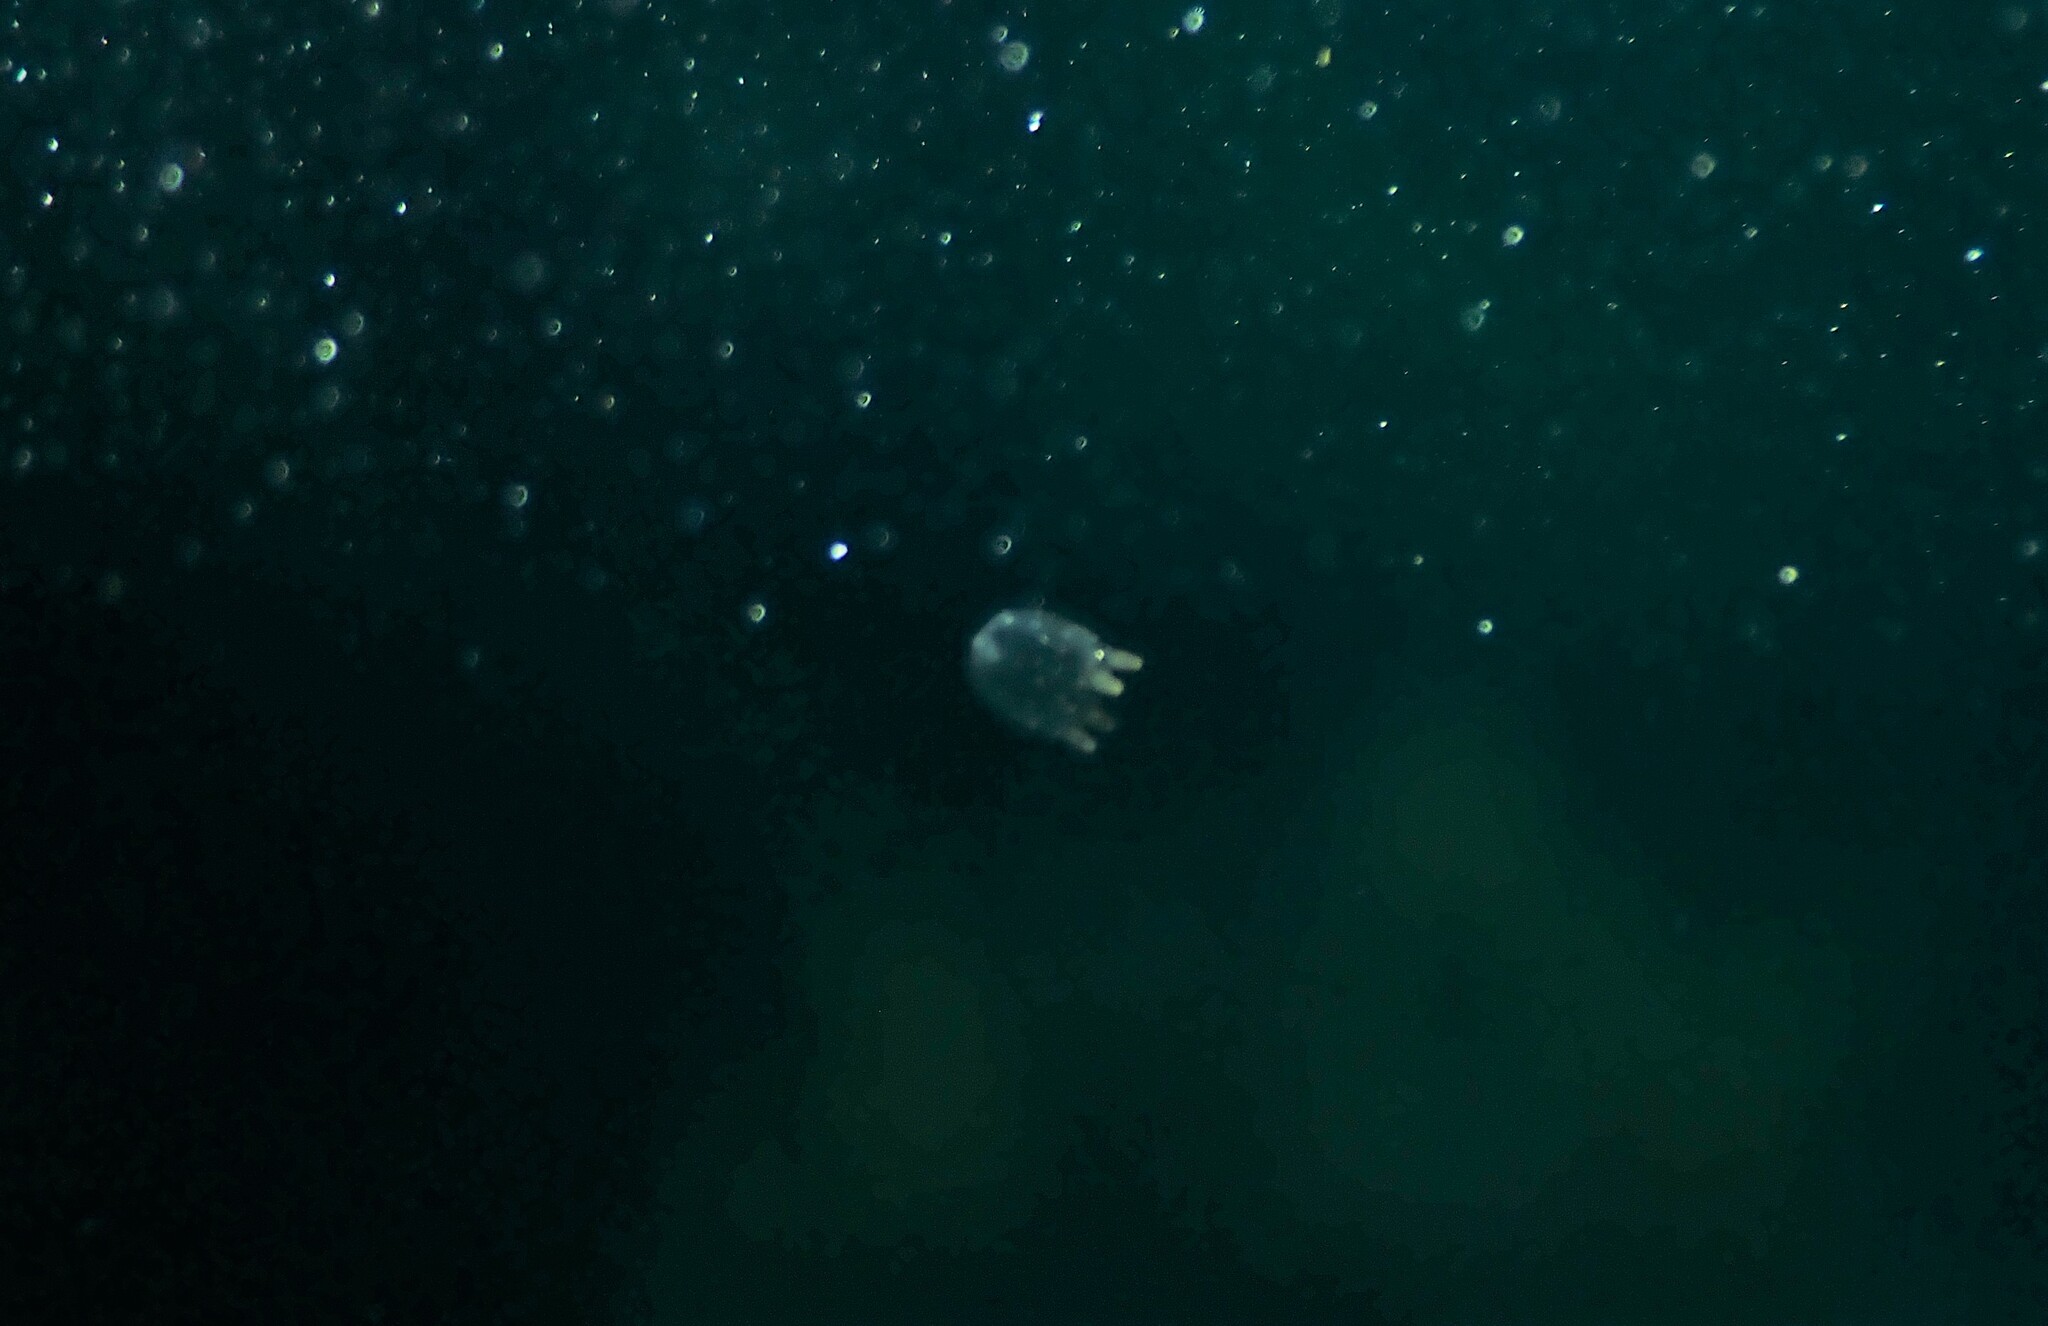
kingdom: Animalia
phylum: Cnidaria
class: Cubozoa
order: Carybdeida
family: Tripedaliidae
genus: Copula
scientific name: Copula sivickisi
